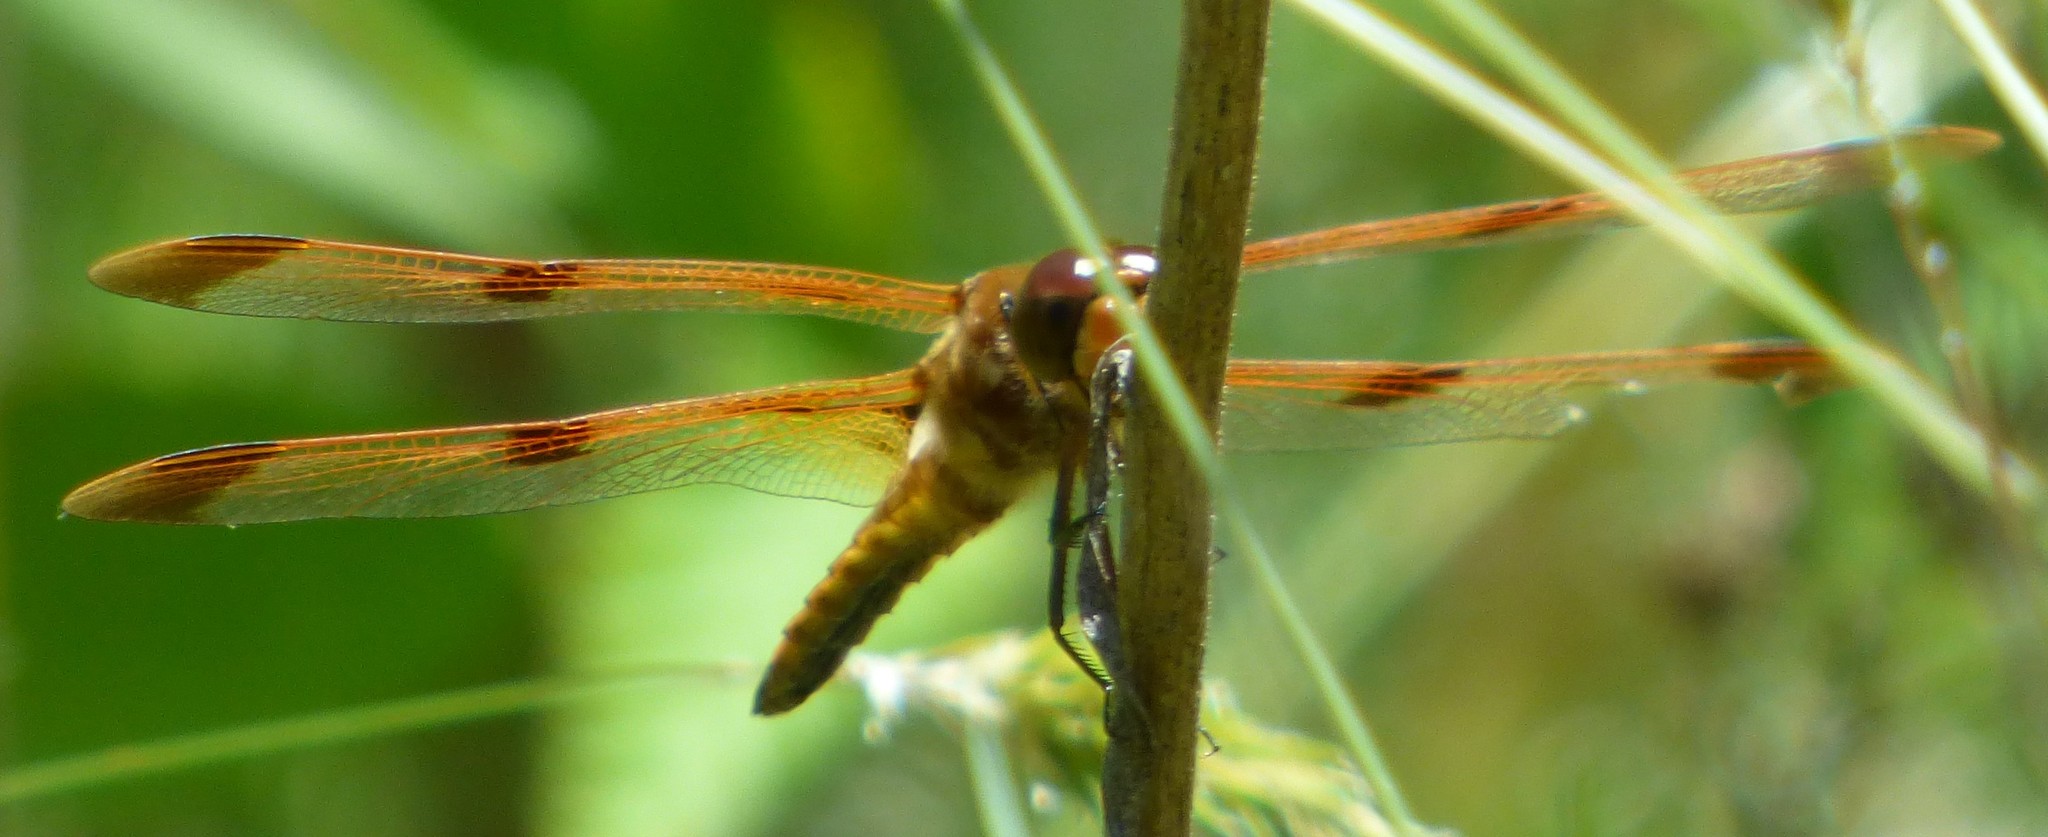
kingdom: Animalia
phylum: Arthropoda
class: Insecta
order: Odonata
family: Libellulidae
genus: Libellula
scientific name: Libellula semifasciata
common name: Painted skimmer
